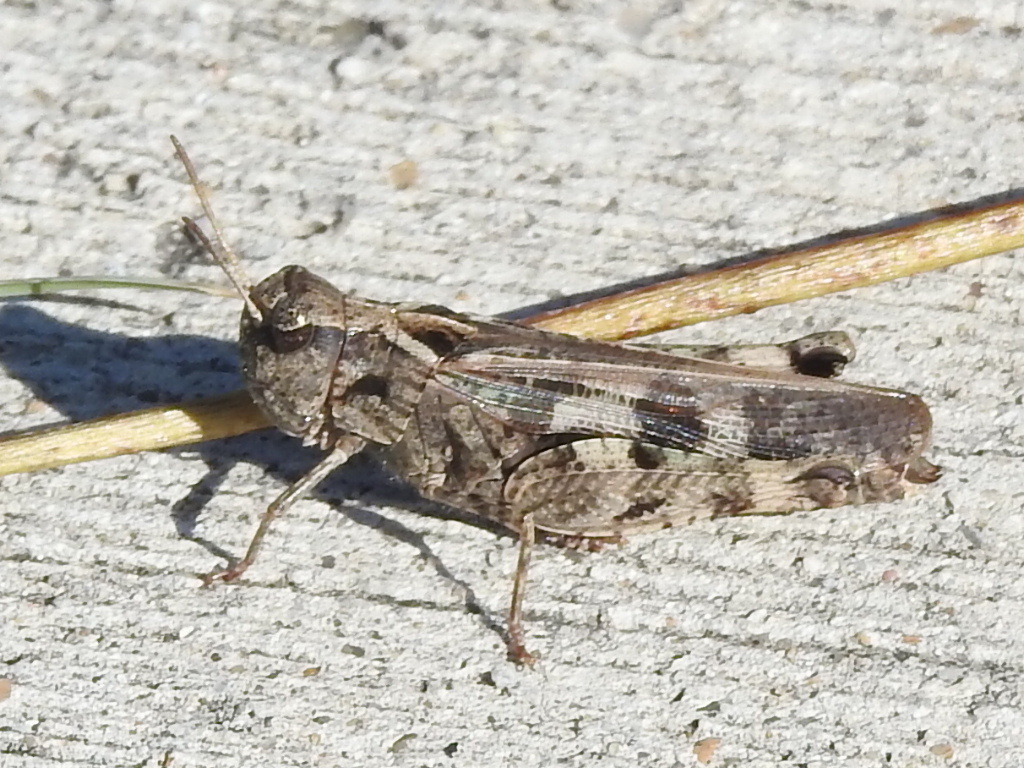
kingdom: Animalia
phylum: Arthropoda
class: Insecta
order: Orthoptera
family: Acrididae
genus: Encoptolophus
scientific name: Encoptolophus costalis
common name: Dusky grasshopper
